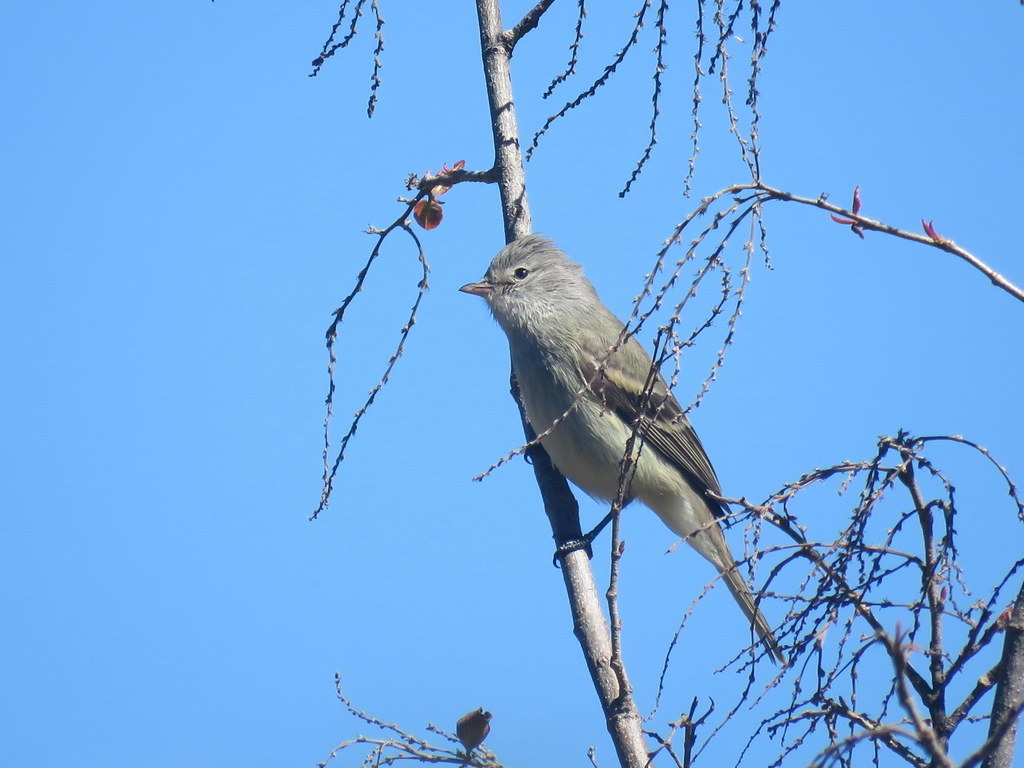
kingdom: Animalia
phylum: Chordata
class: Aves
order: Passeriformes
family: Tyrannidae
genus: Camptostoma
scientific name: Camptostoma obsoletum
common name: Southern beardless-tyrannulet
